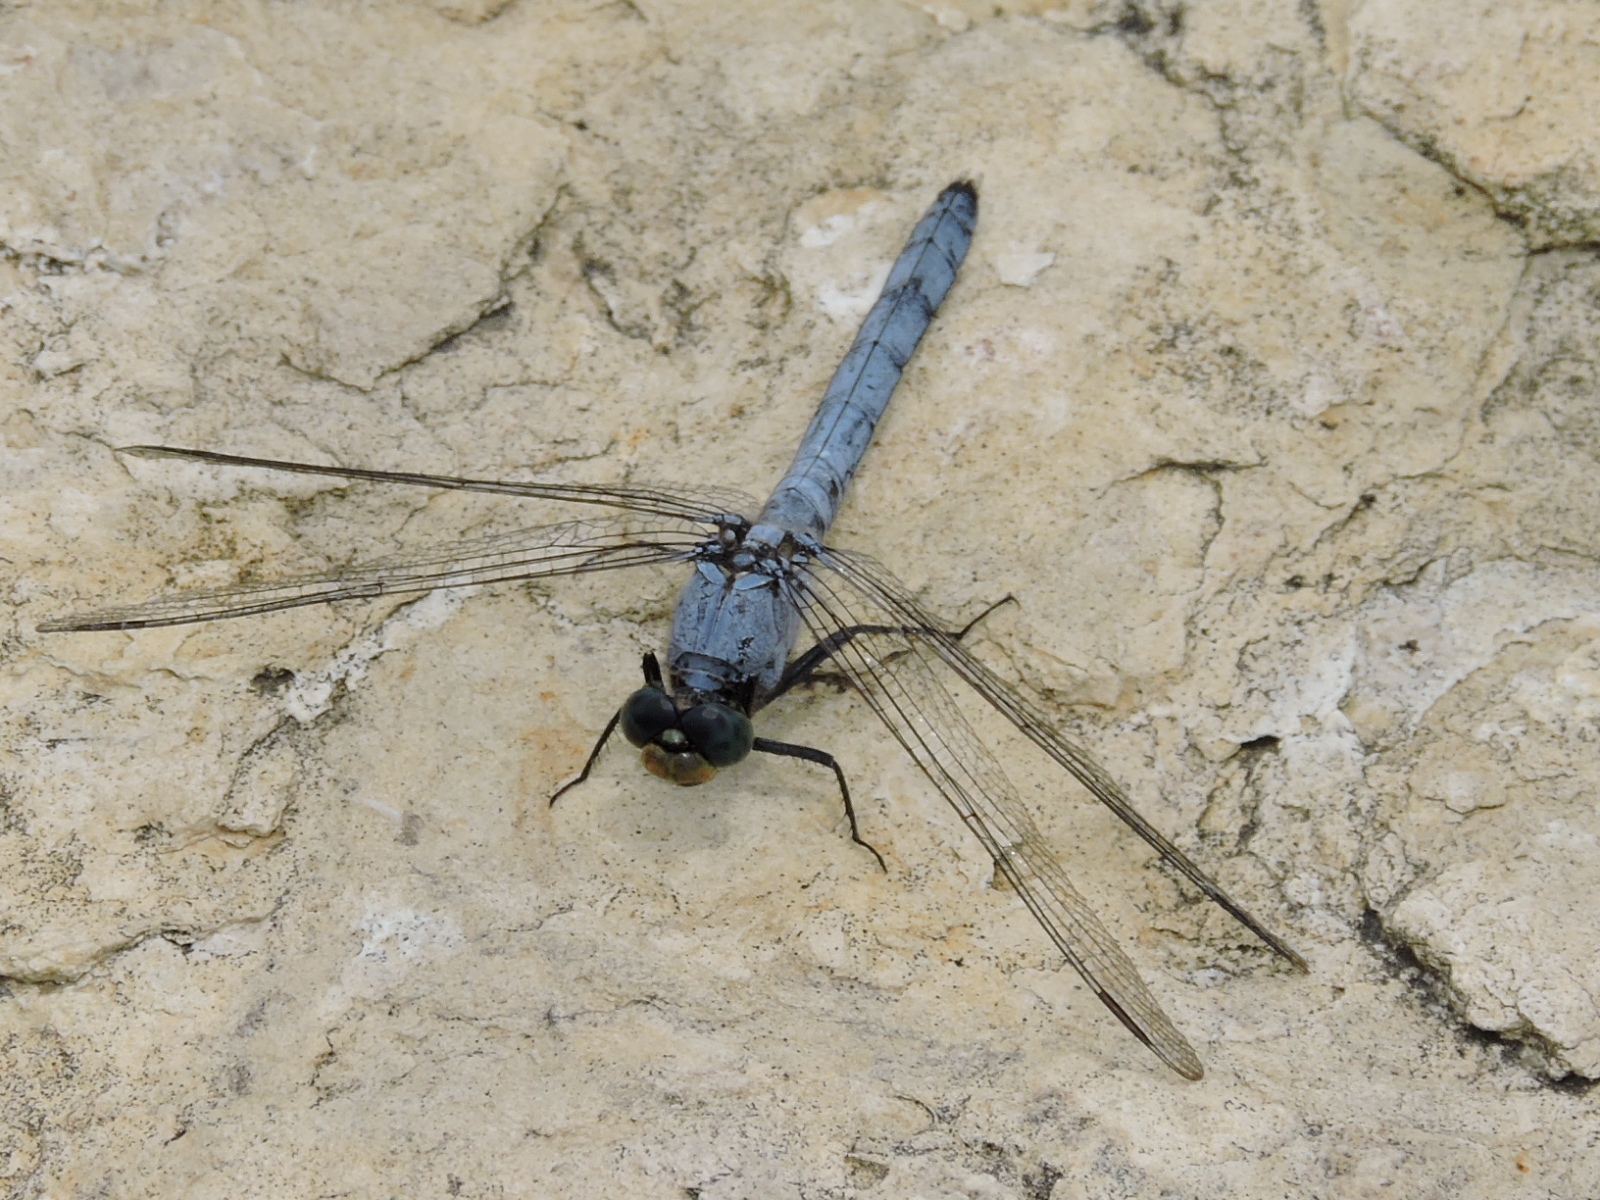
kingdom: Animalia
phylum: Arthropoda
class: Insecta
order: Odonata
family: Libellulidae
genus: Erythemis
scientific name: Erythemis simplicicollis
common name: Eastern pondhawk
